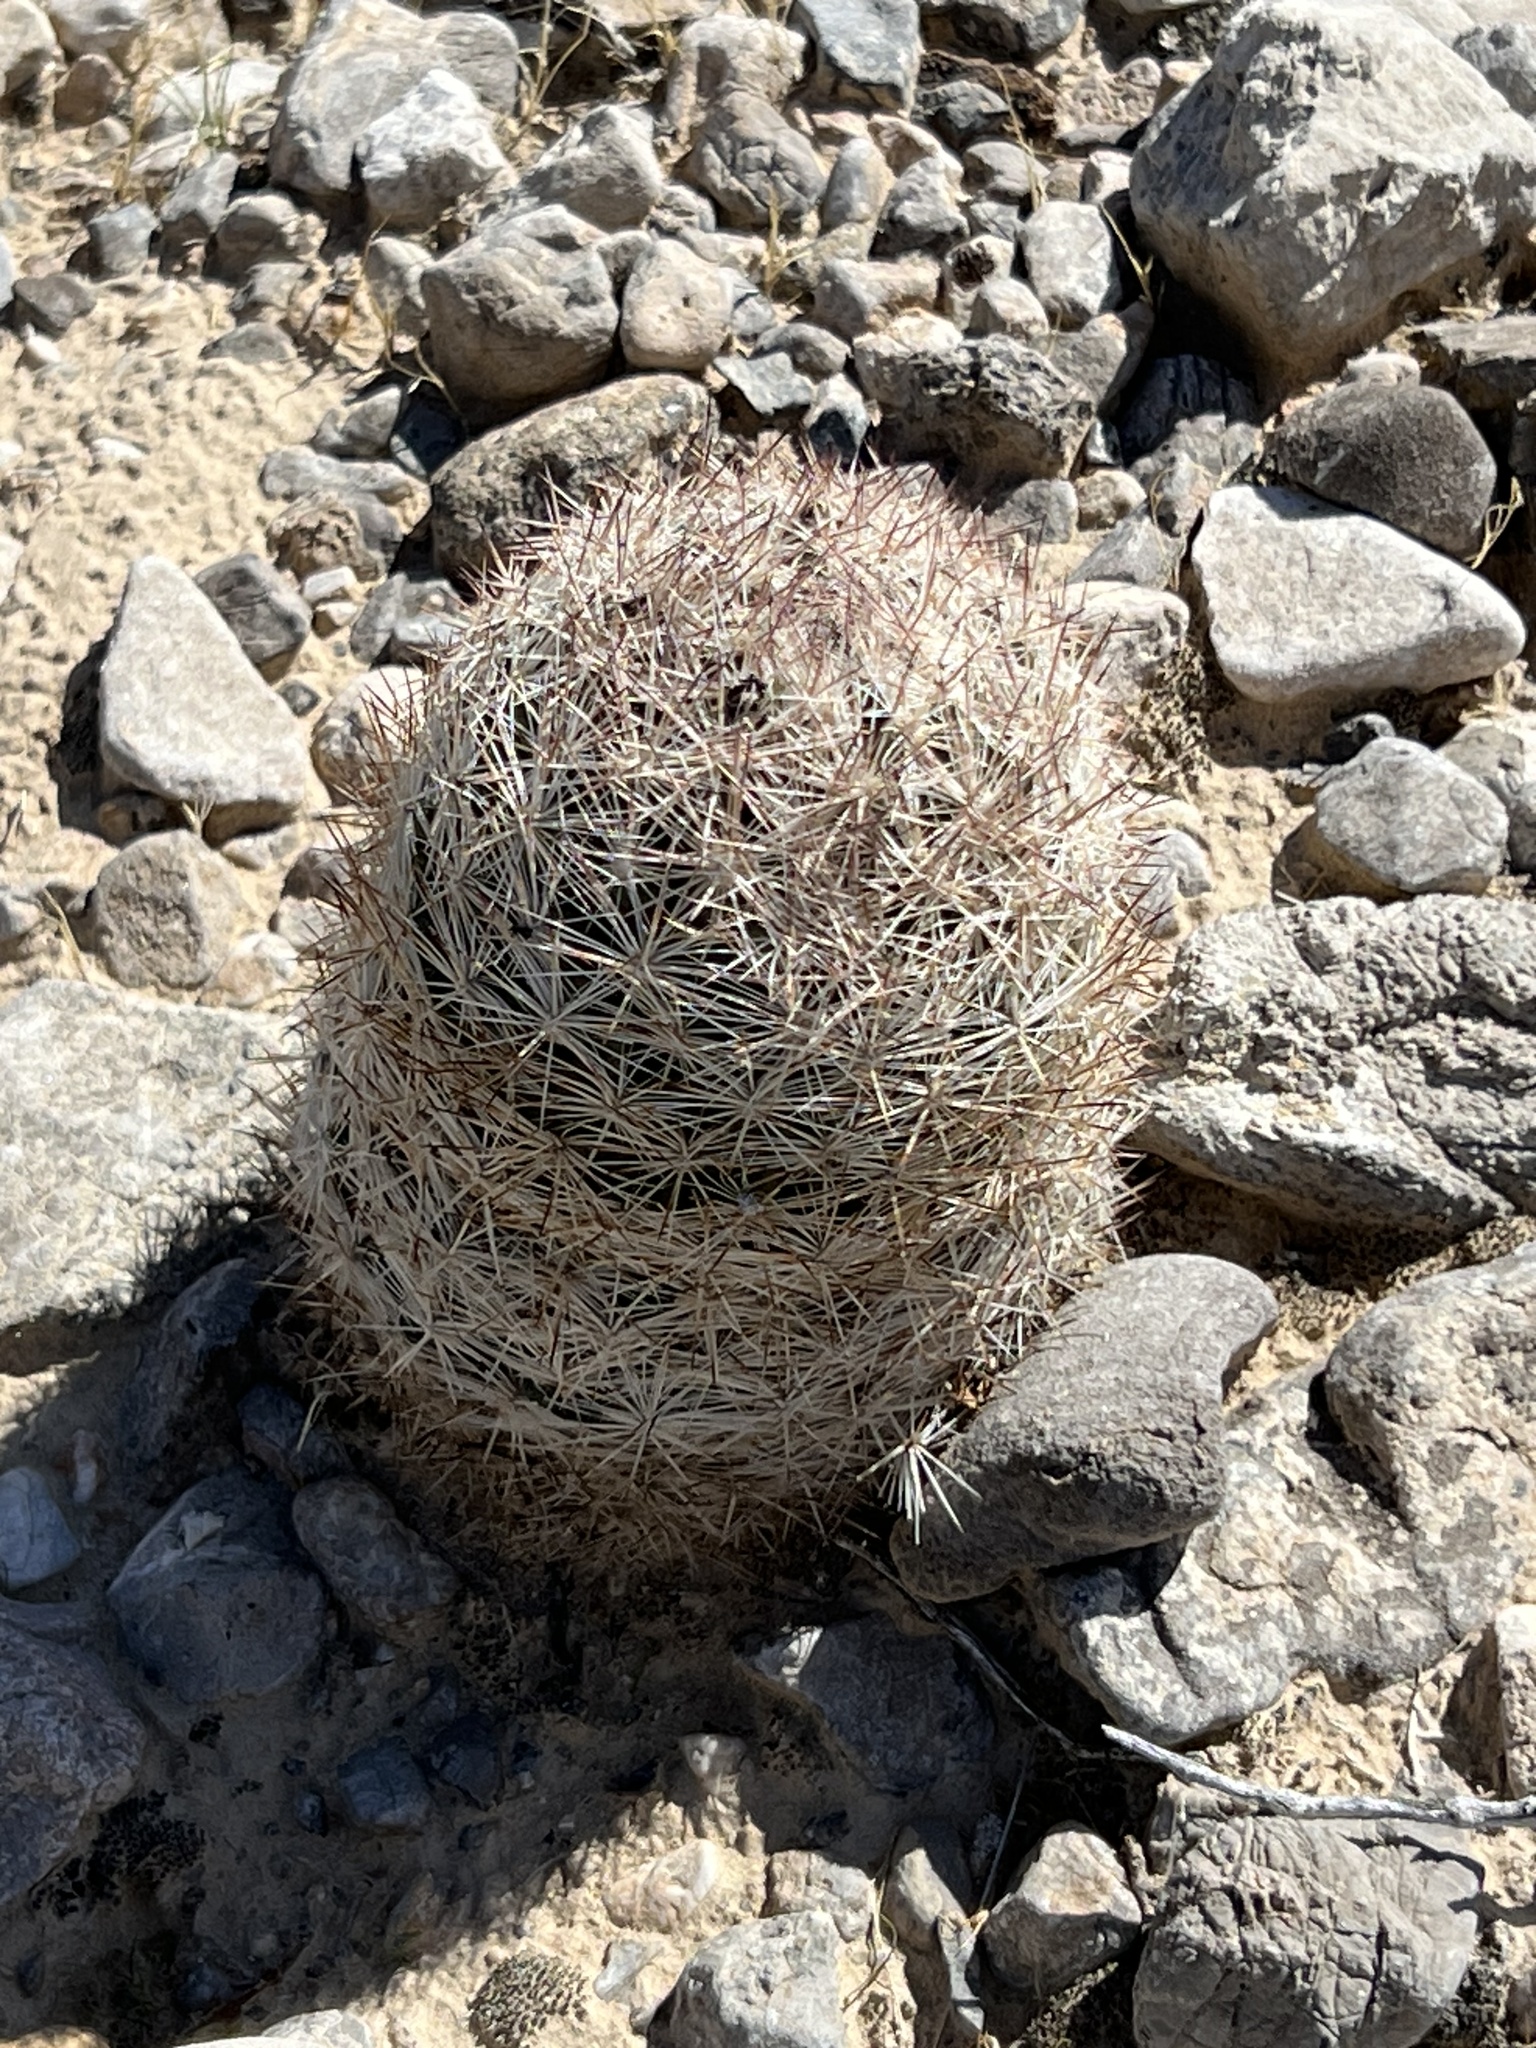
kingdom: Plantae
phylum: Tracheophyta
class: Magnoliopsida
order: Caryophyllales
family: Cactaceae
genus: Pelecyphora
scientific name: Pelecyphora dasyacantha
